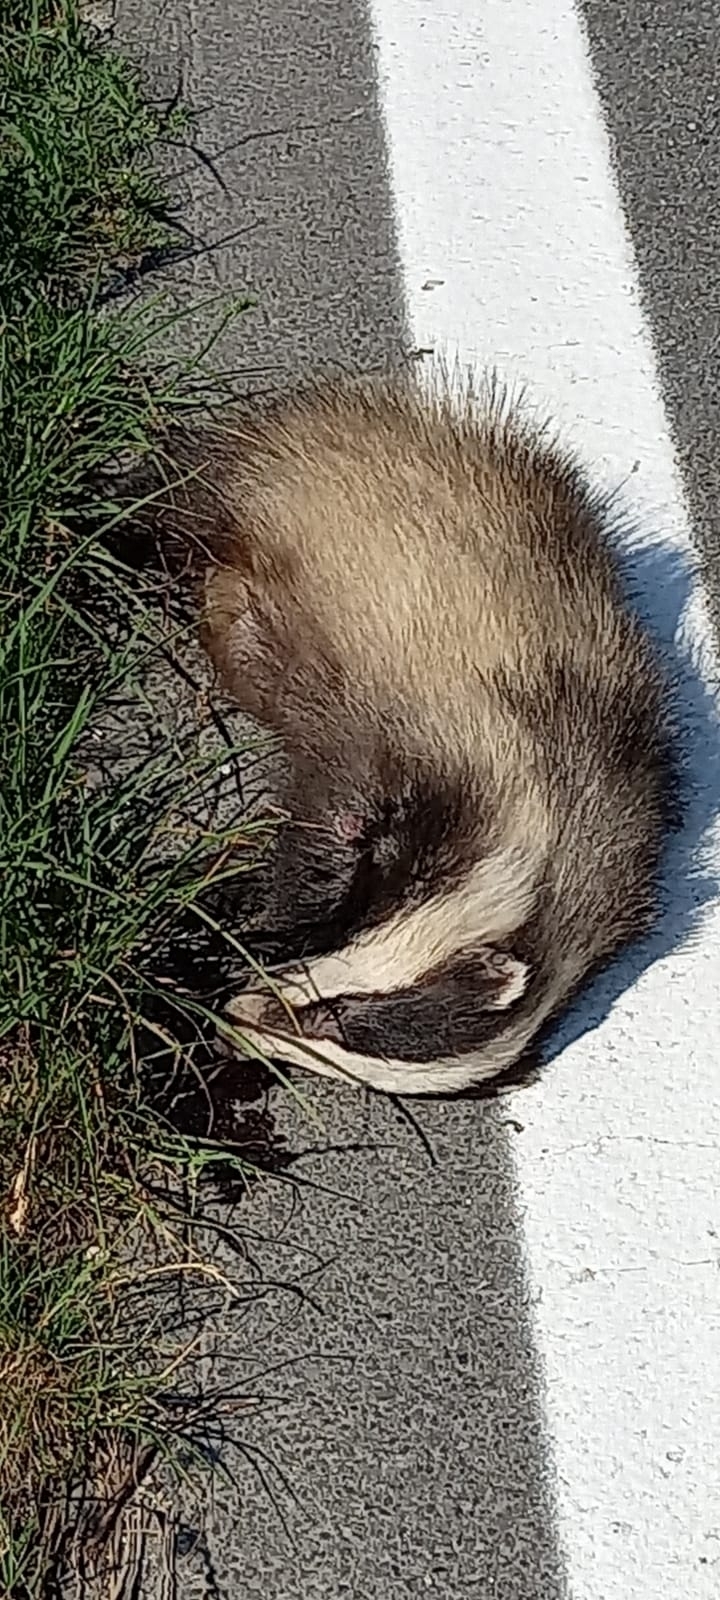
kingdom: Animalia
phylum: Chordata
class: Mammalia
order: Carnivora
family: Mustelidae
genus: Meles
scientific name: Meles meles
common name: Eurasian badger
